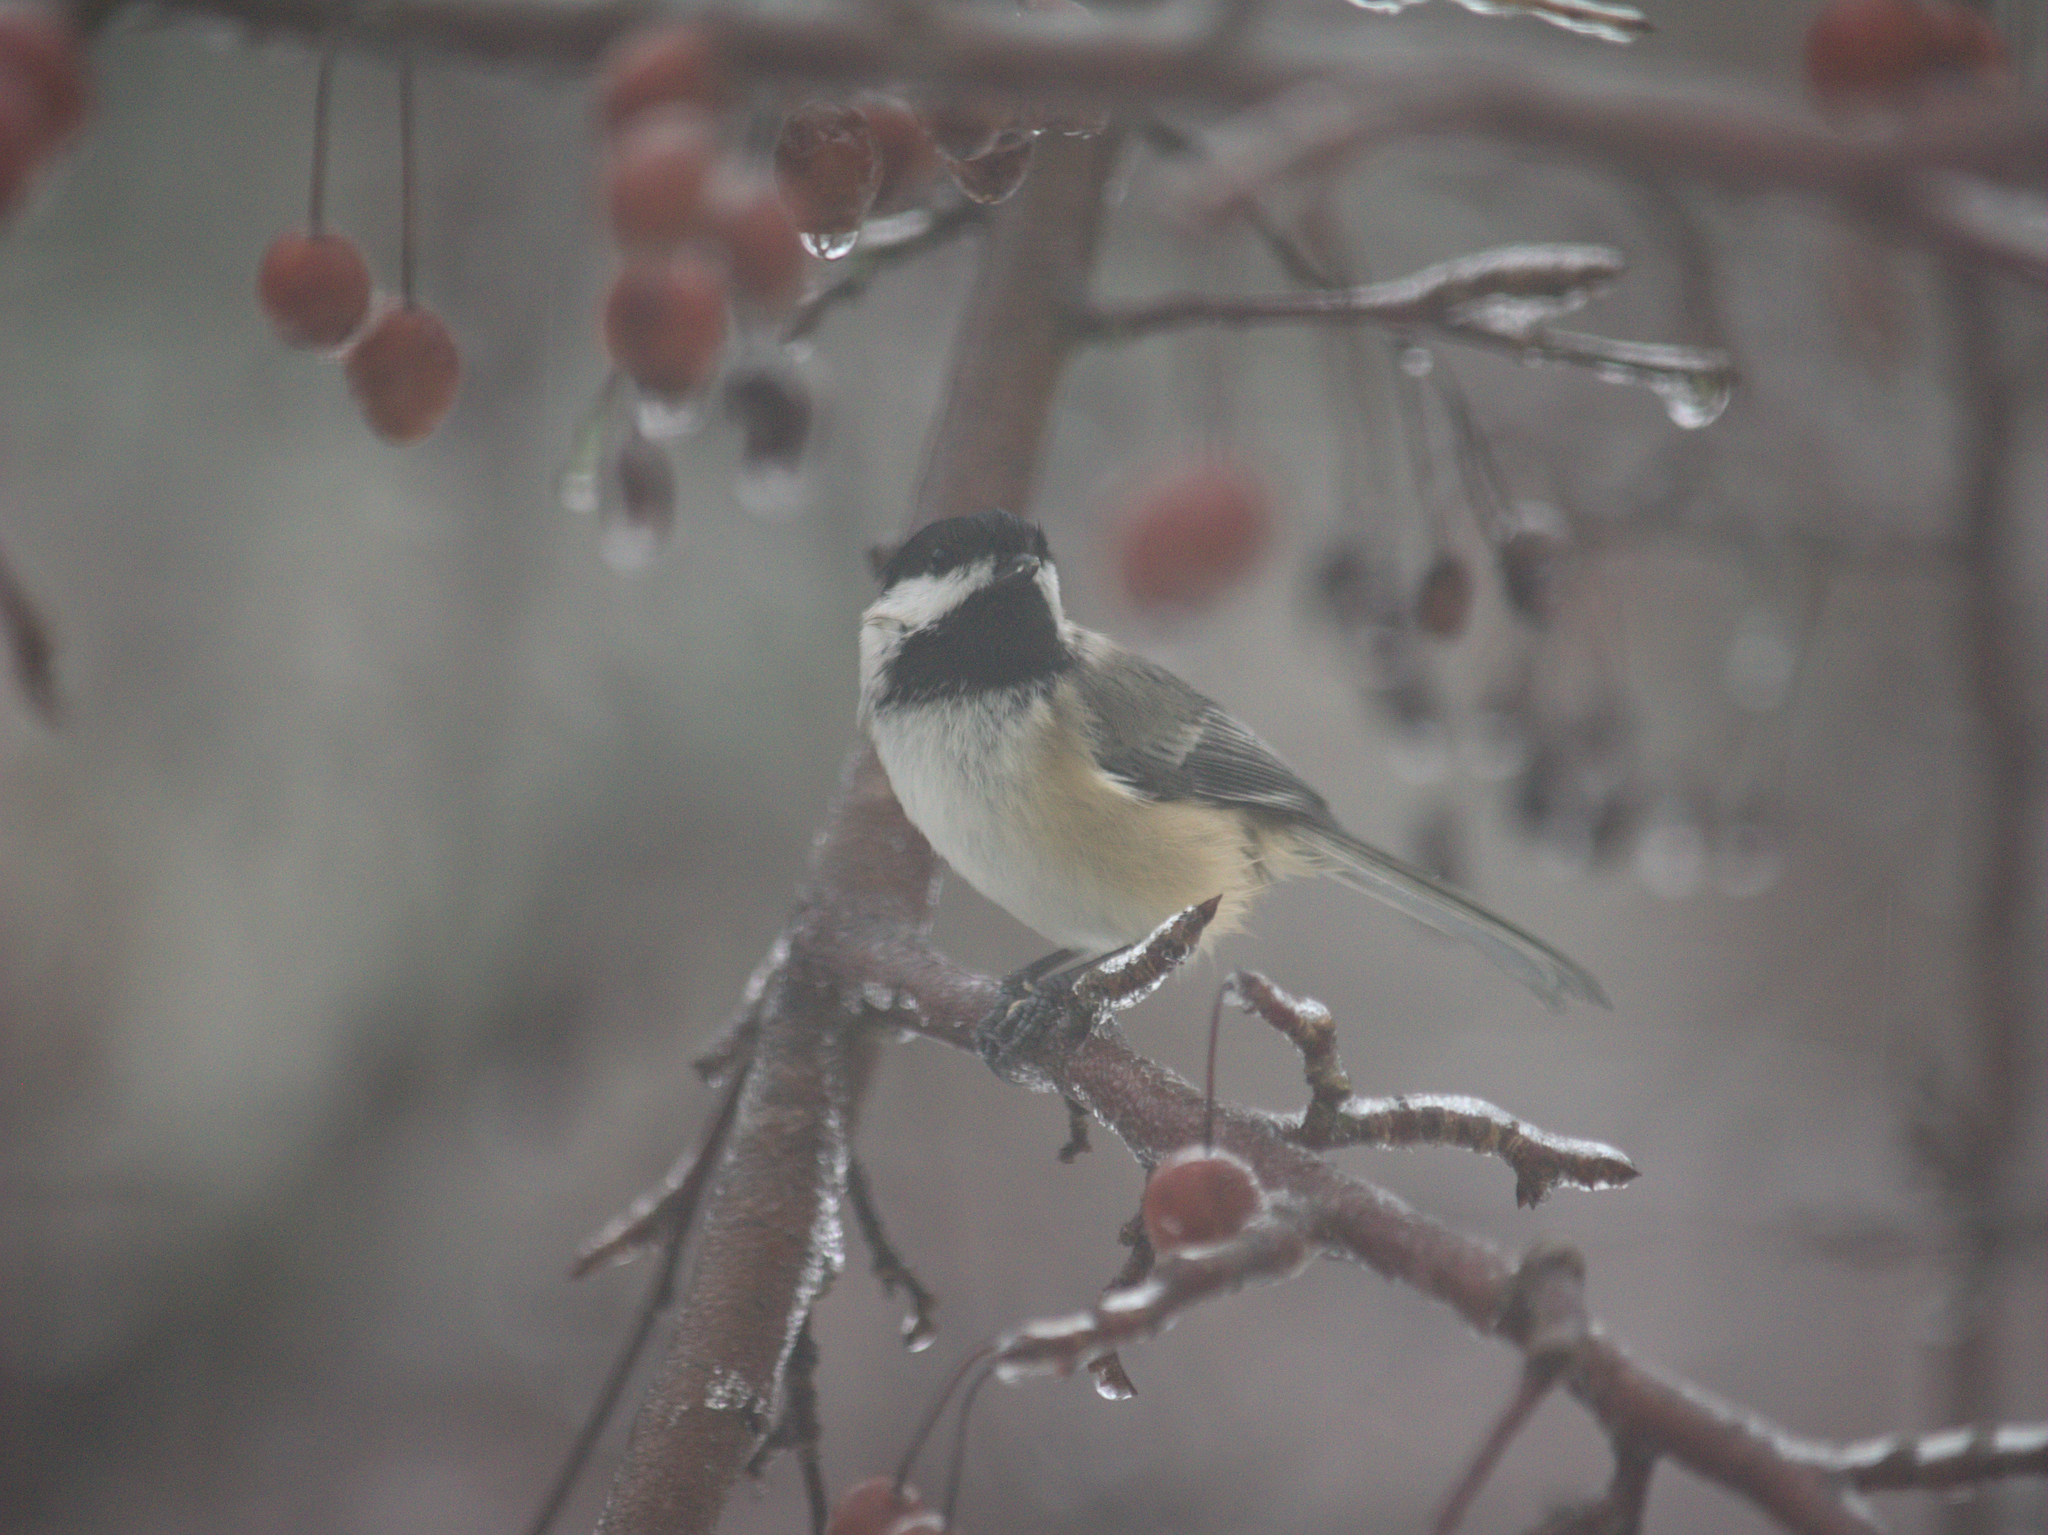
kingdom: Animalia
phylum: Chordata
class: Aves
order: Passeriformes
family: Paridae
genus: Poecile
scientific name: Poecile atricapillus
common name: Black-capped chickadee
